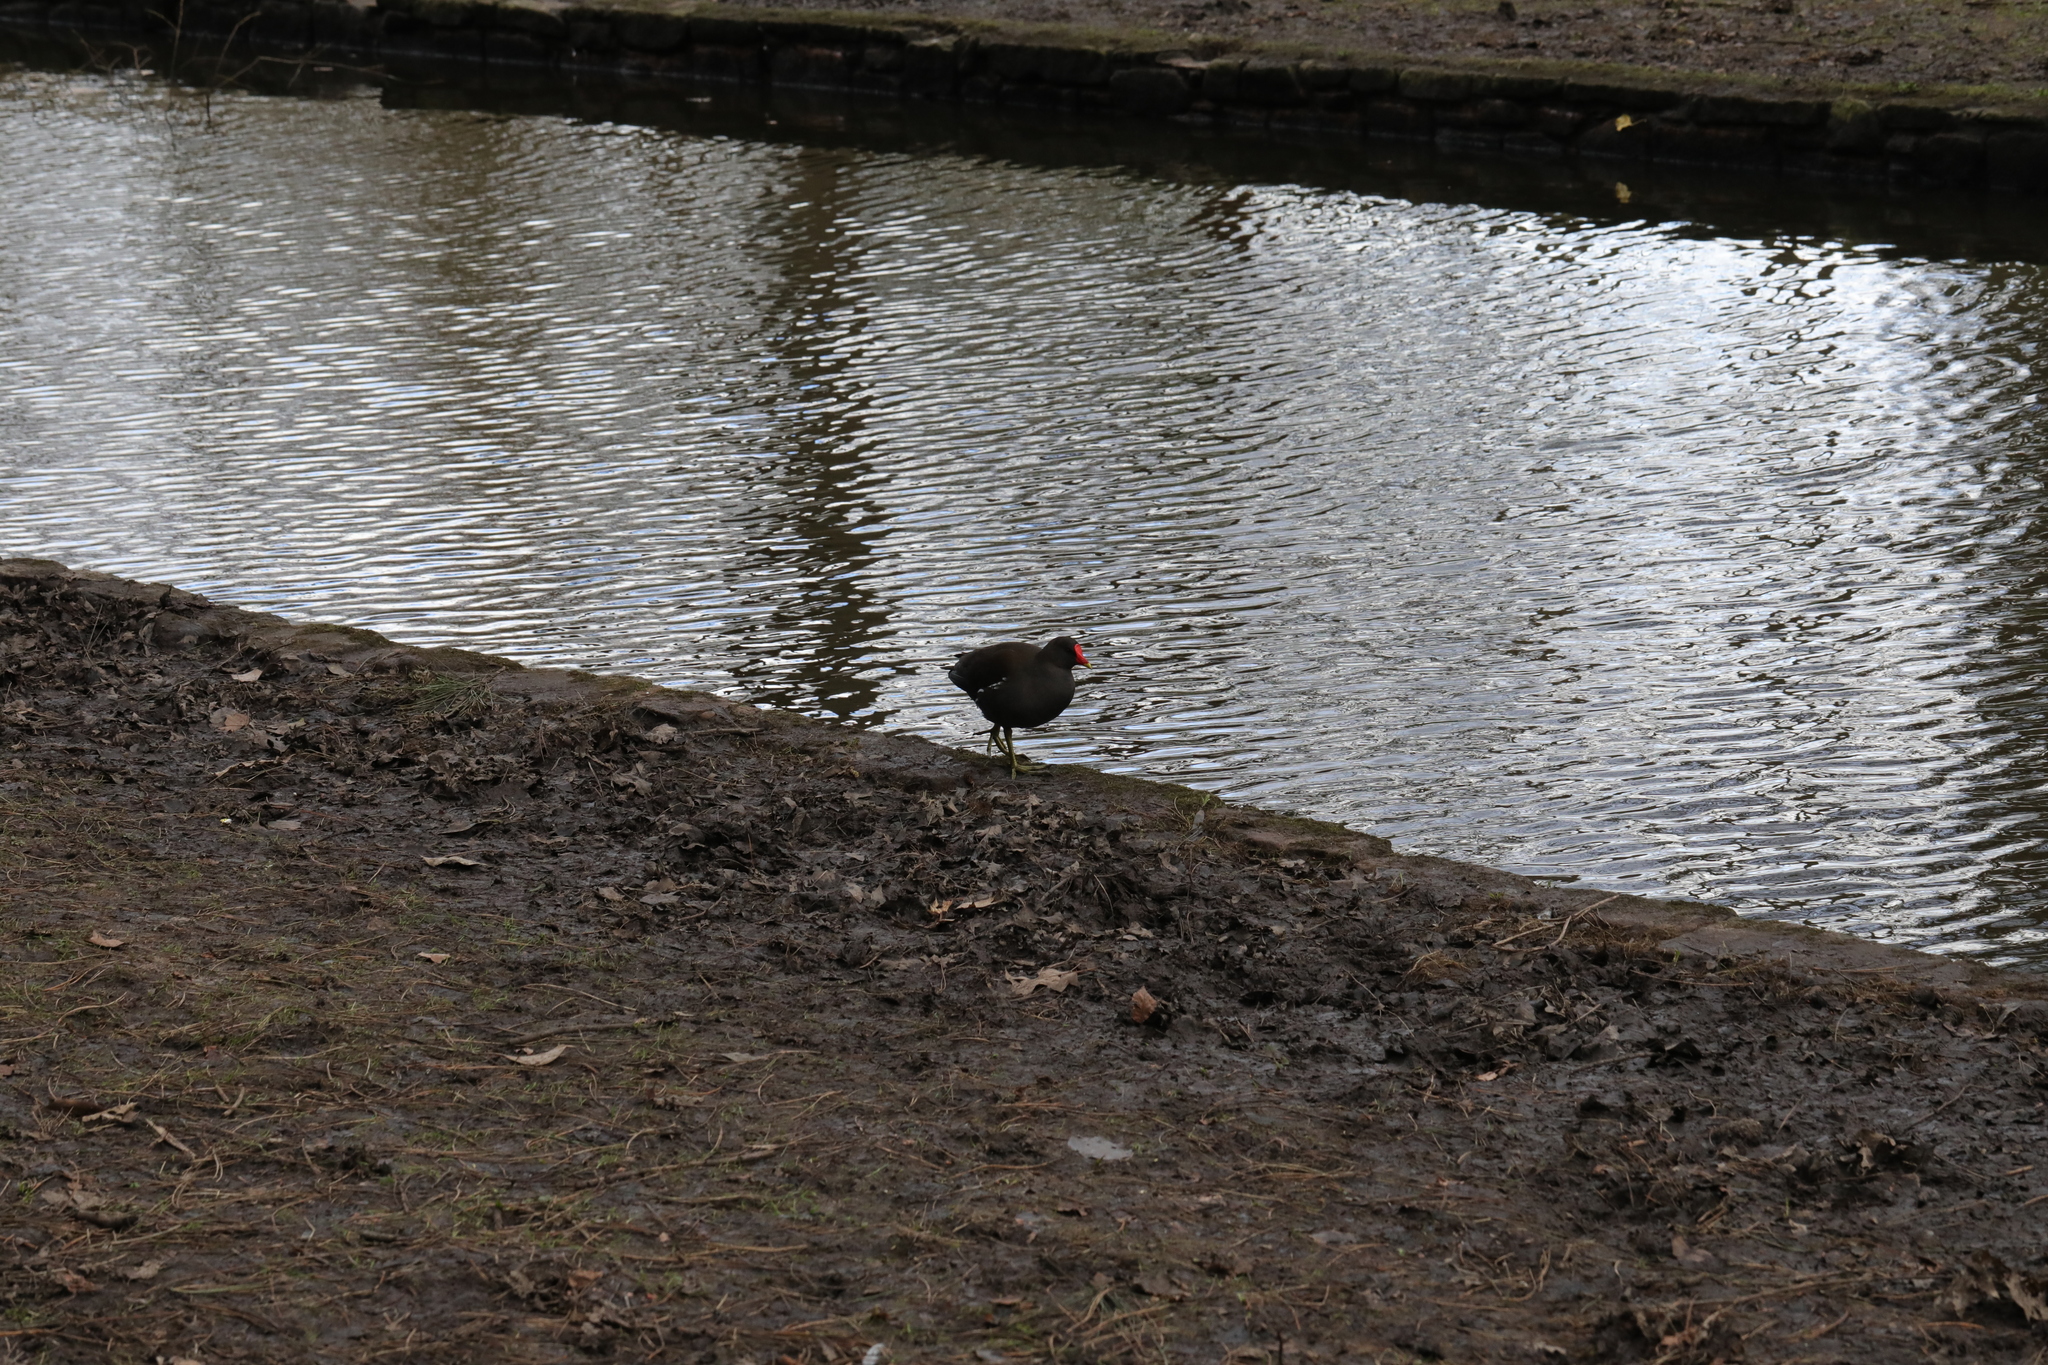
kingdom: Animalia
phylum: Chordata
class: Aves
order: Gruiformes
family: Rallidae
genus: Gallinula
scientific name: Gallinula chloropus
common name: Common moorhen
